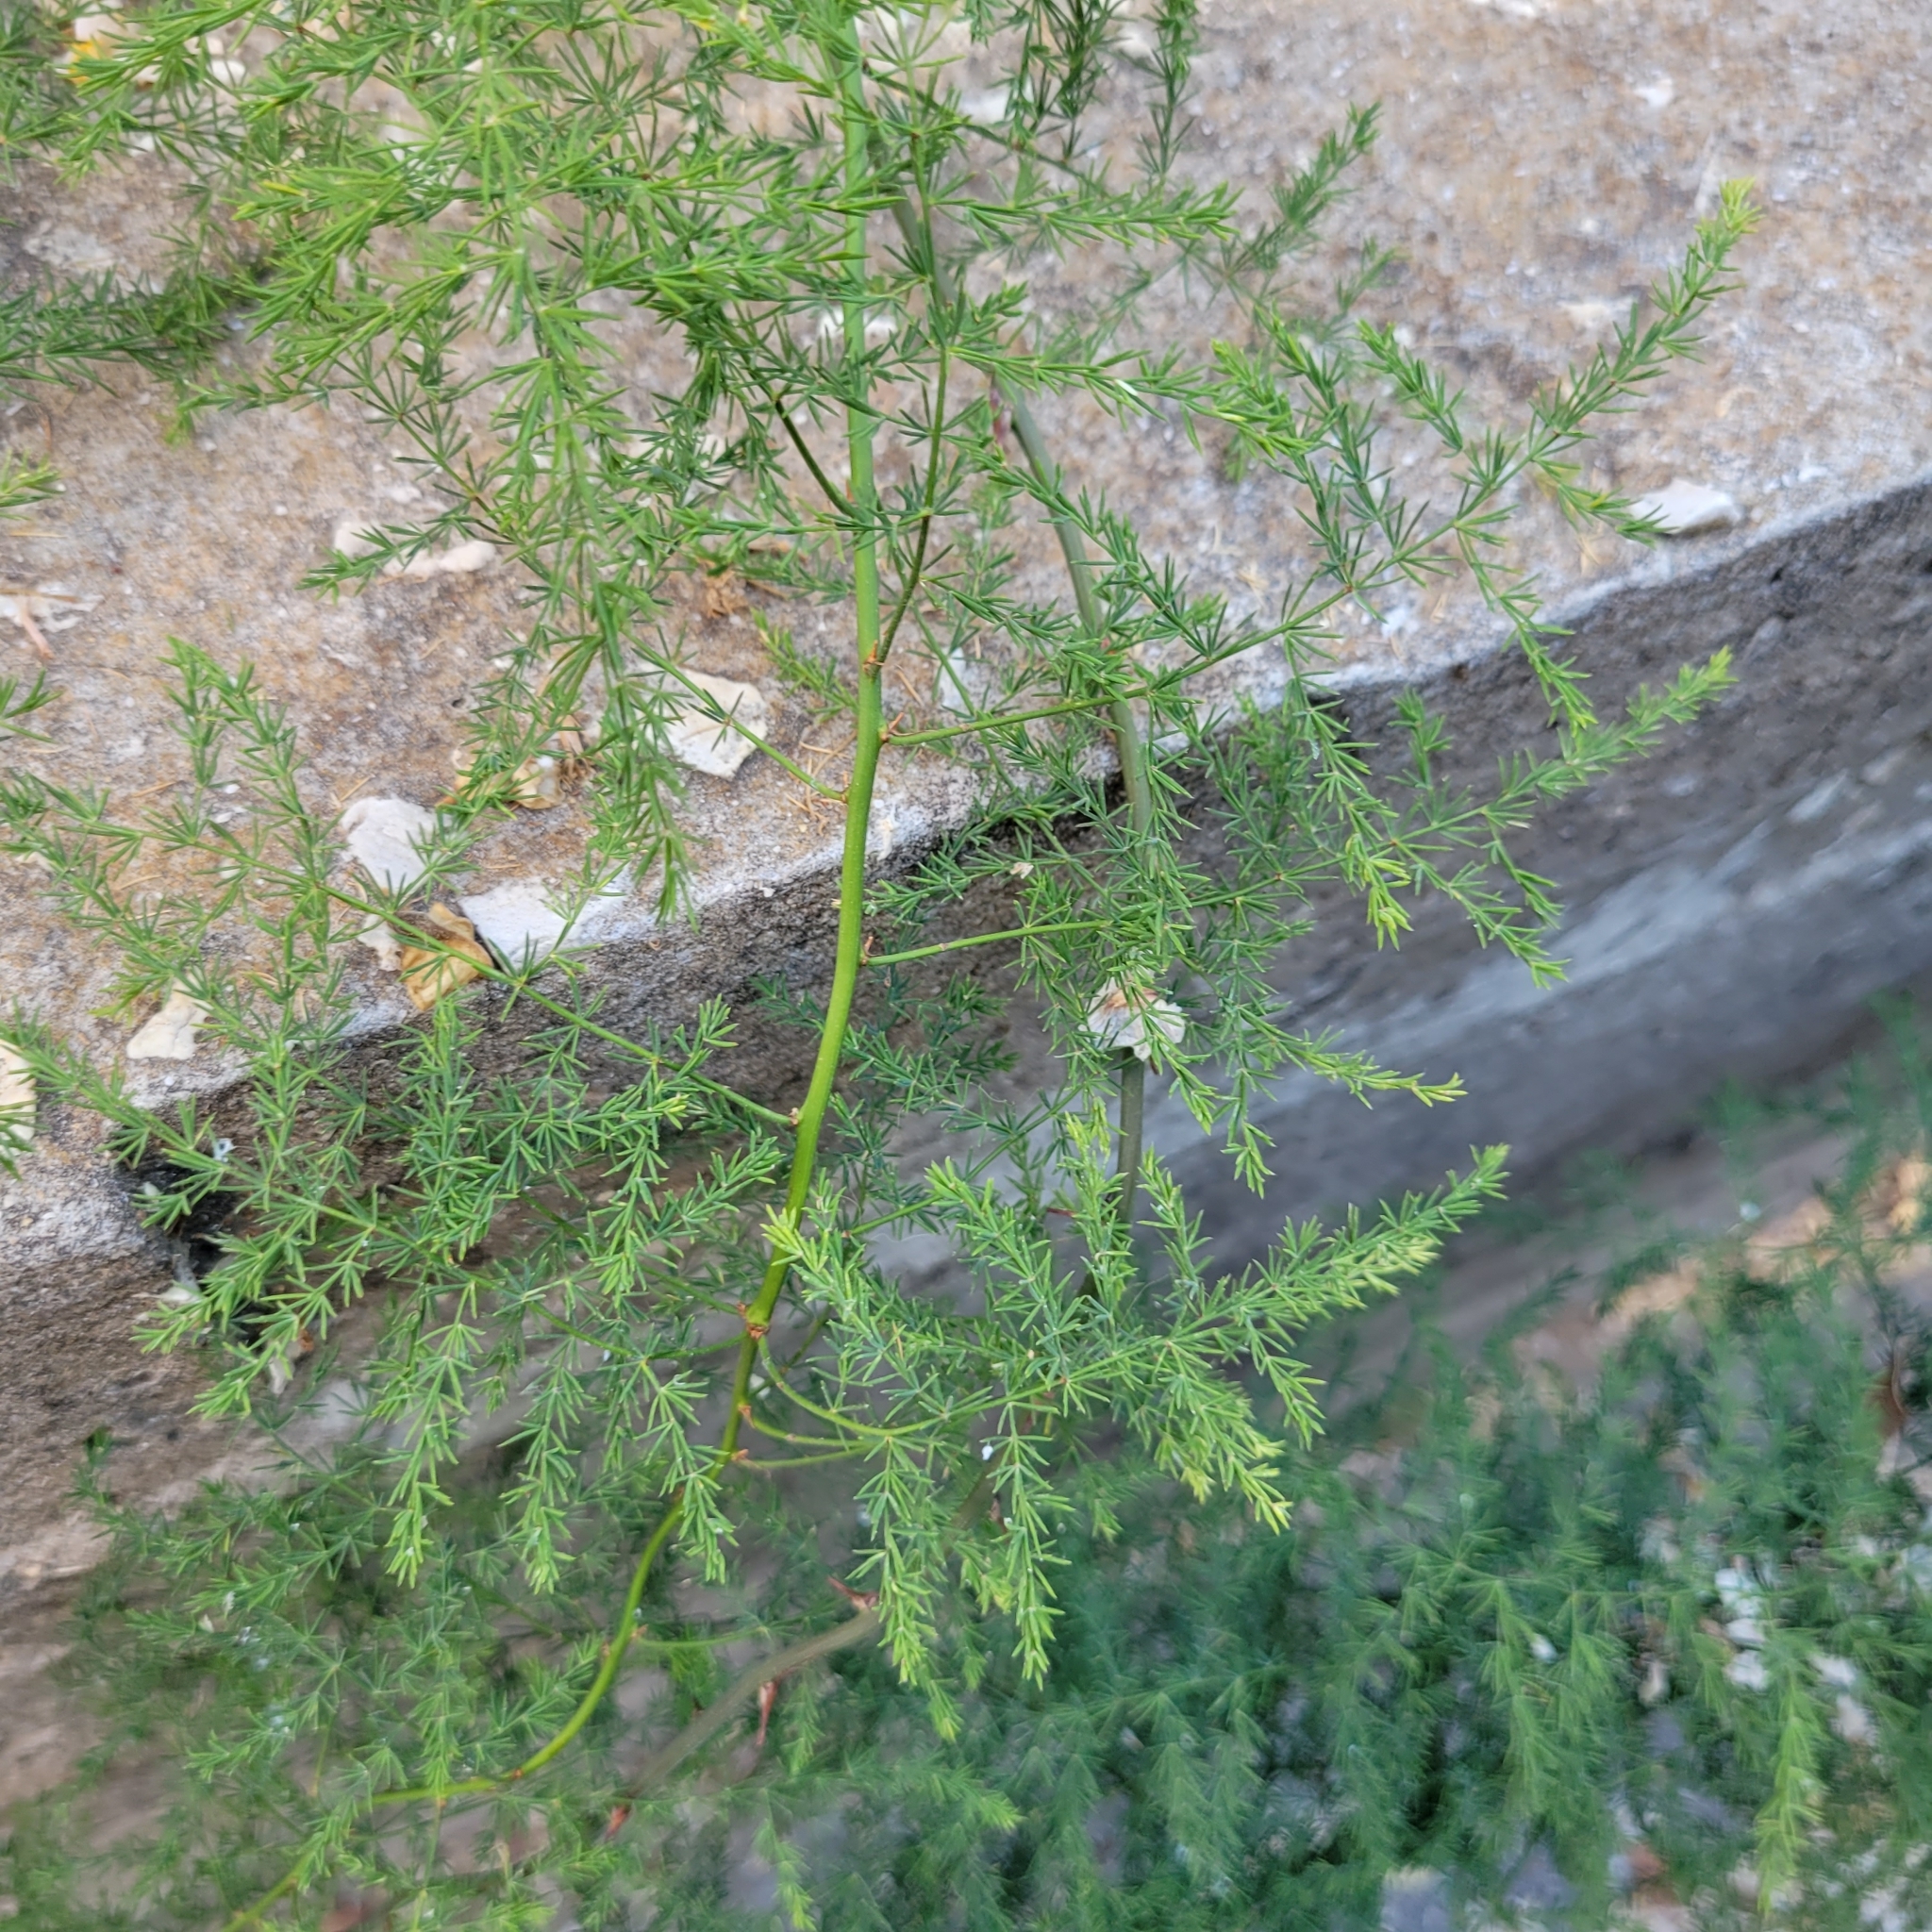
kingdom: Plantae
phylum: Tracheophyta
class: Liliopsida
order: Asparagales
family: Asparagaceae
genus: Asparagus
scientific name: Asparagus setaceus
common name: Common asparagus fern
